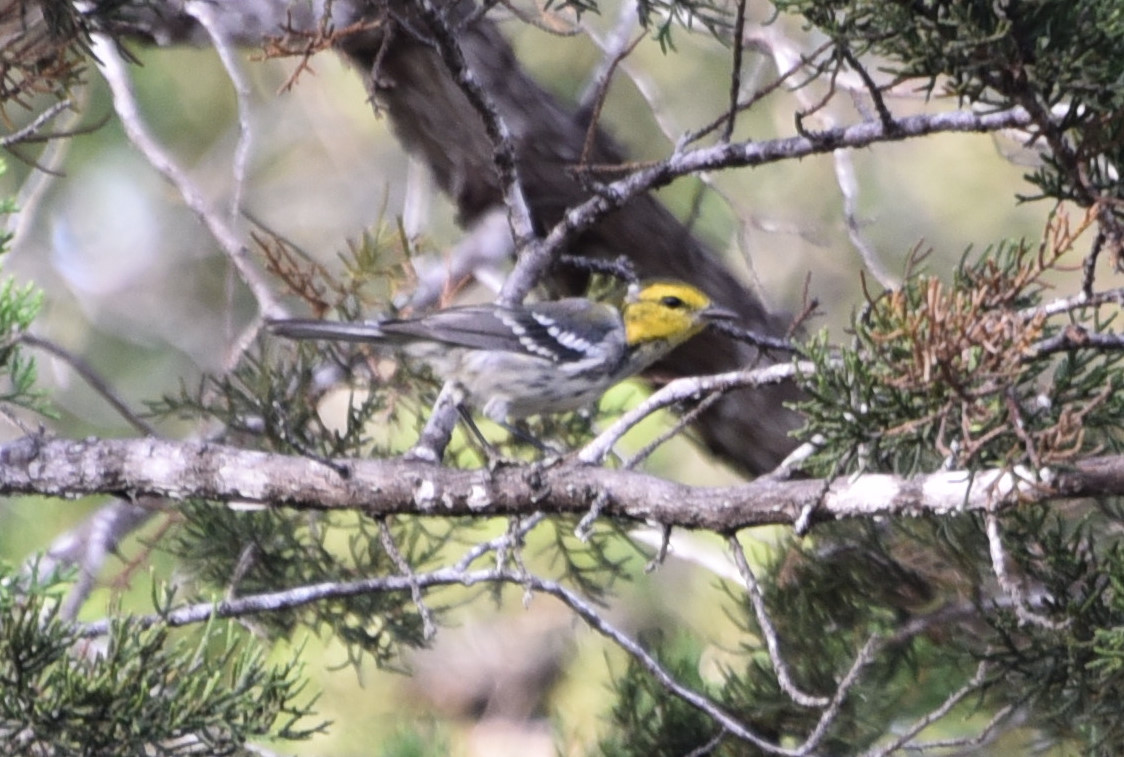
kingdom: Animalia
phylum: Chordata
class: Aves
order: Passeriformes
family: Parulidae
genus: Setophaga
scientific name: Setophaga chrysoparia
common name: Golden-cheeked warbler
